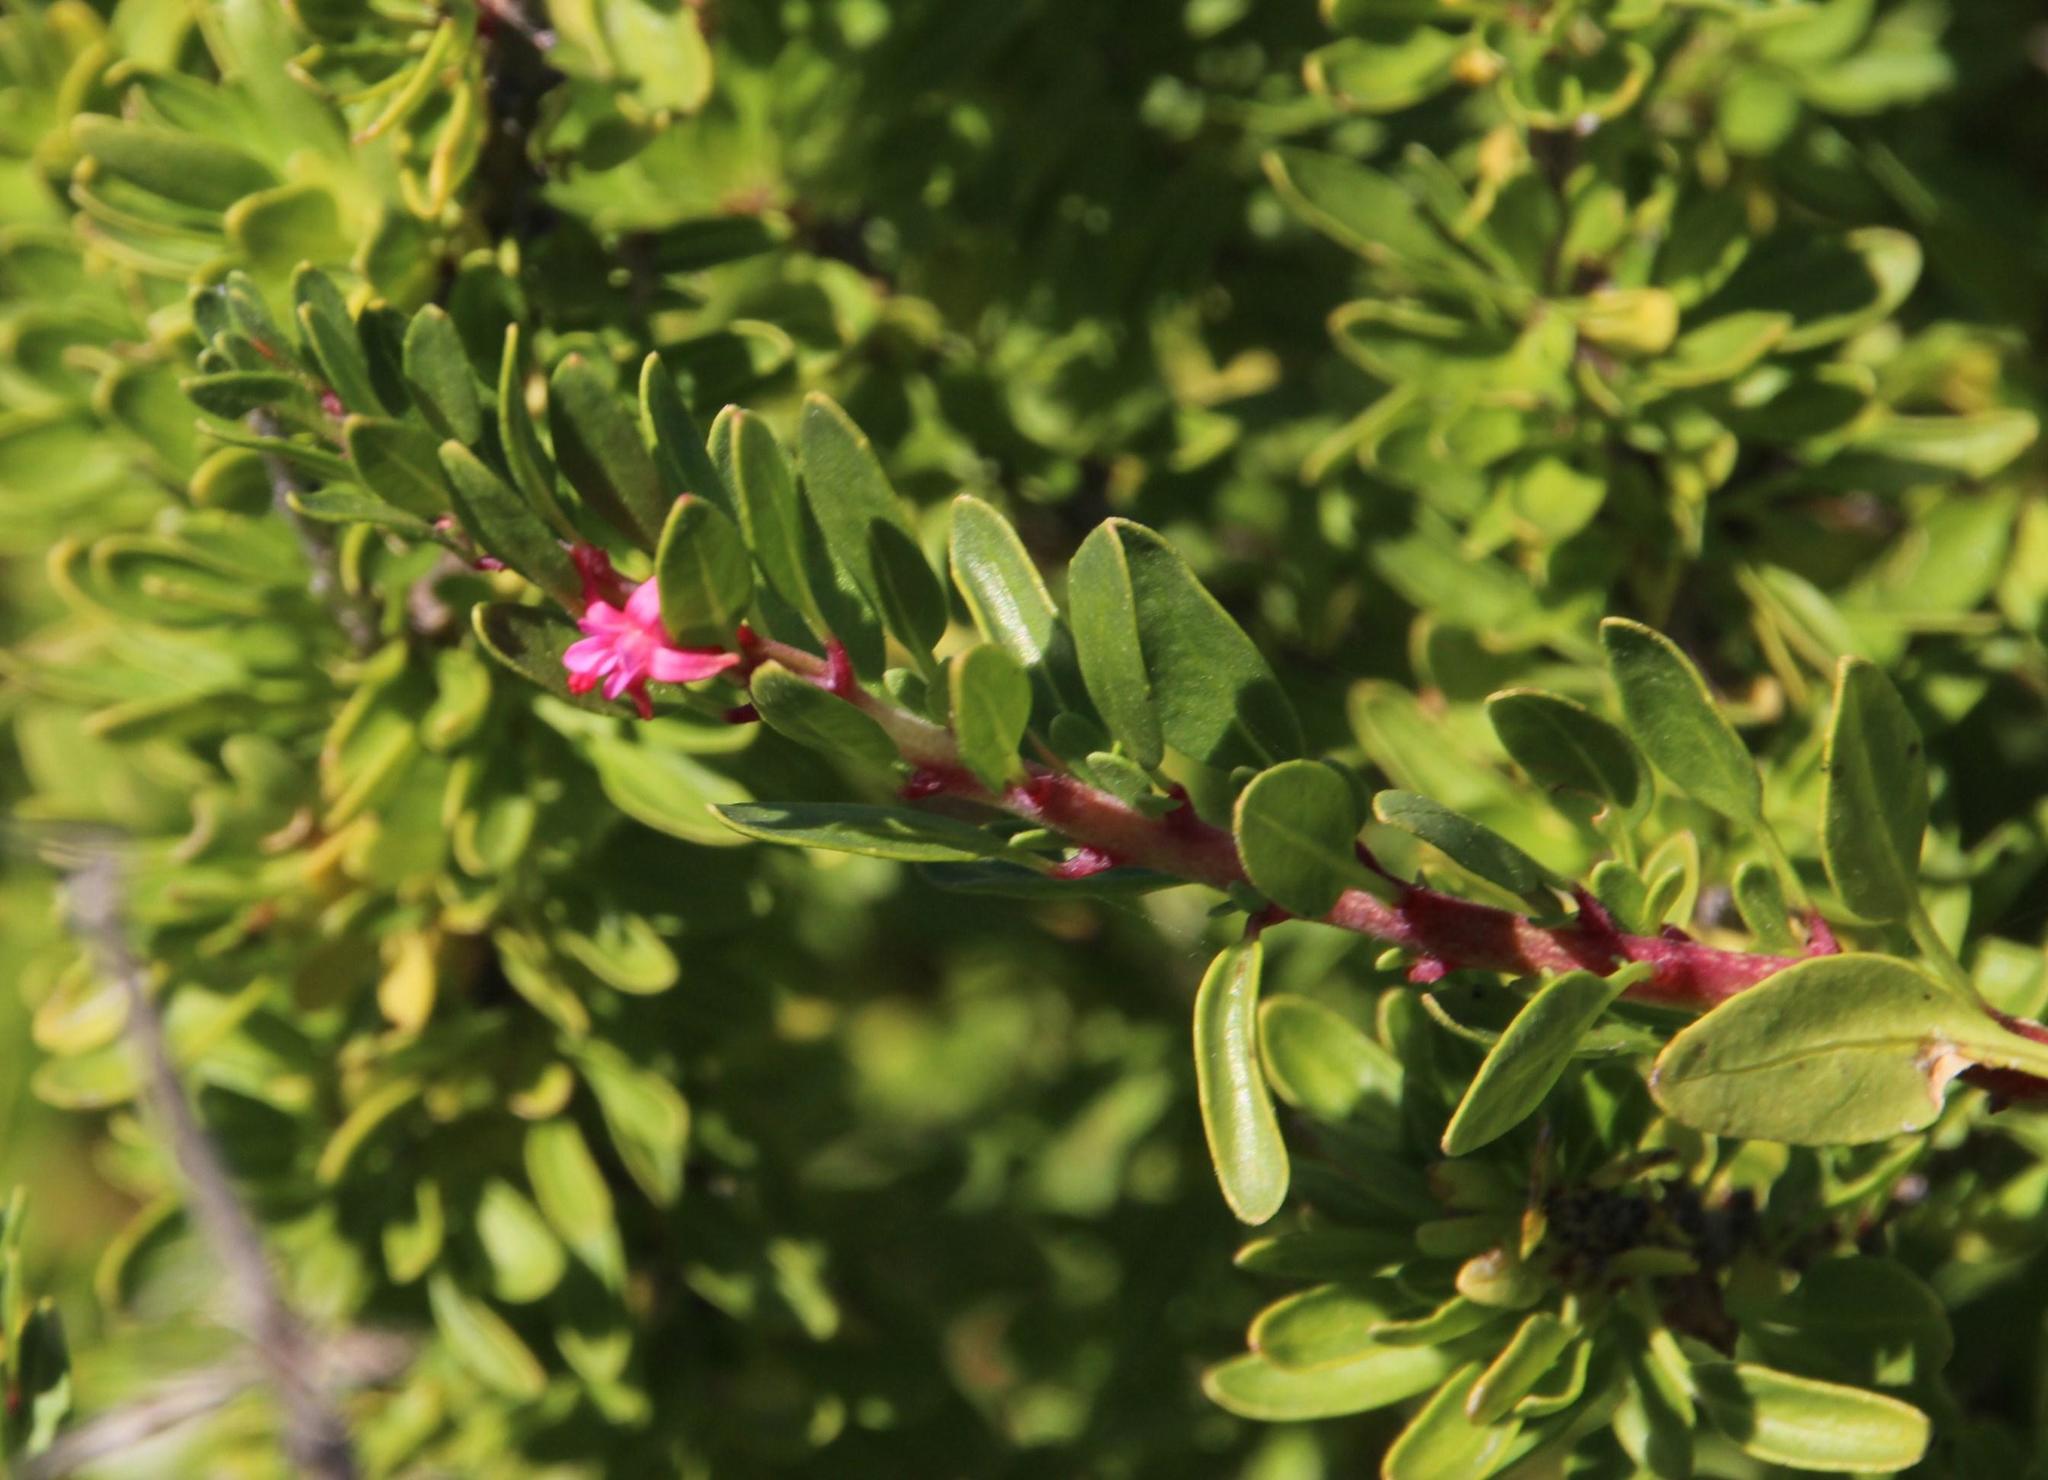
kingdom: Plantae
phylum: Tracheophyta
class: Magnoliopsida
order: Myrtales
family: Onagraceae
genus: Fuchsia
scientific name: Fuchsia lycioides
